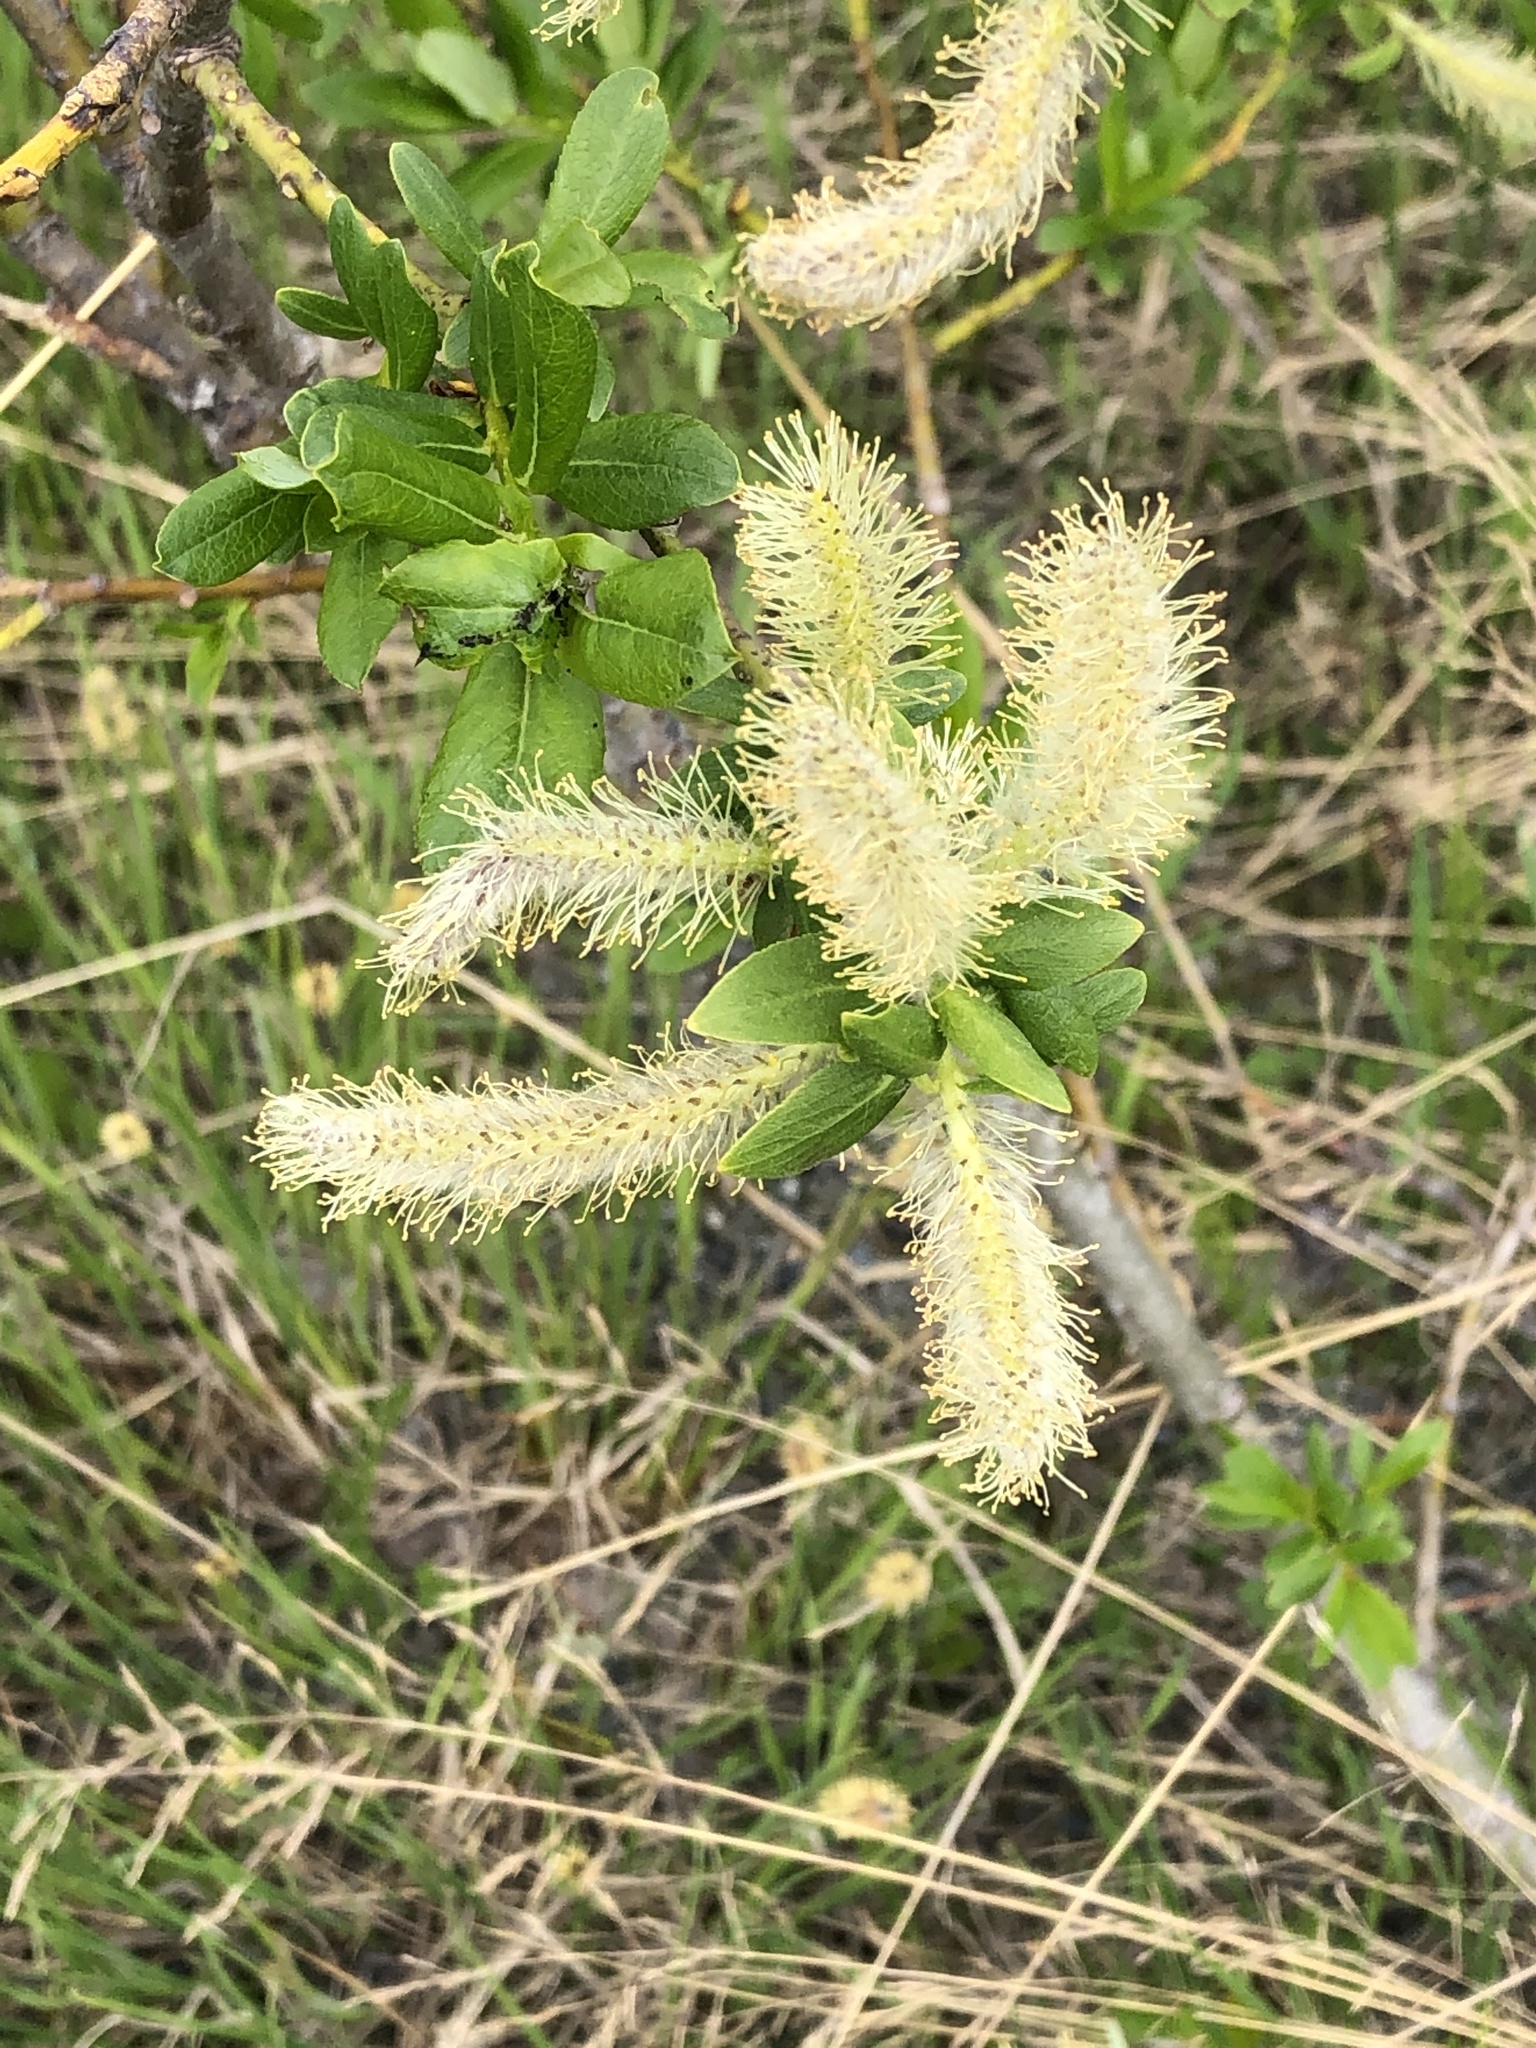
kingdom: Plantae
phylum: Tracheophyta
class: Magnoliopsida
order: Malpighiales
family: Salicaceae
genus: Salix
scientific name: Salix pseudomyrsinites
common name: Tall blueberry willow
